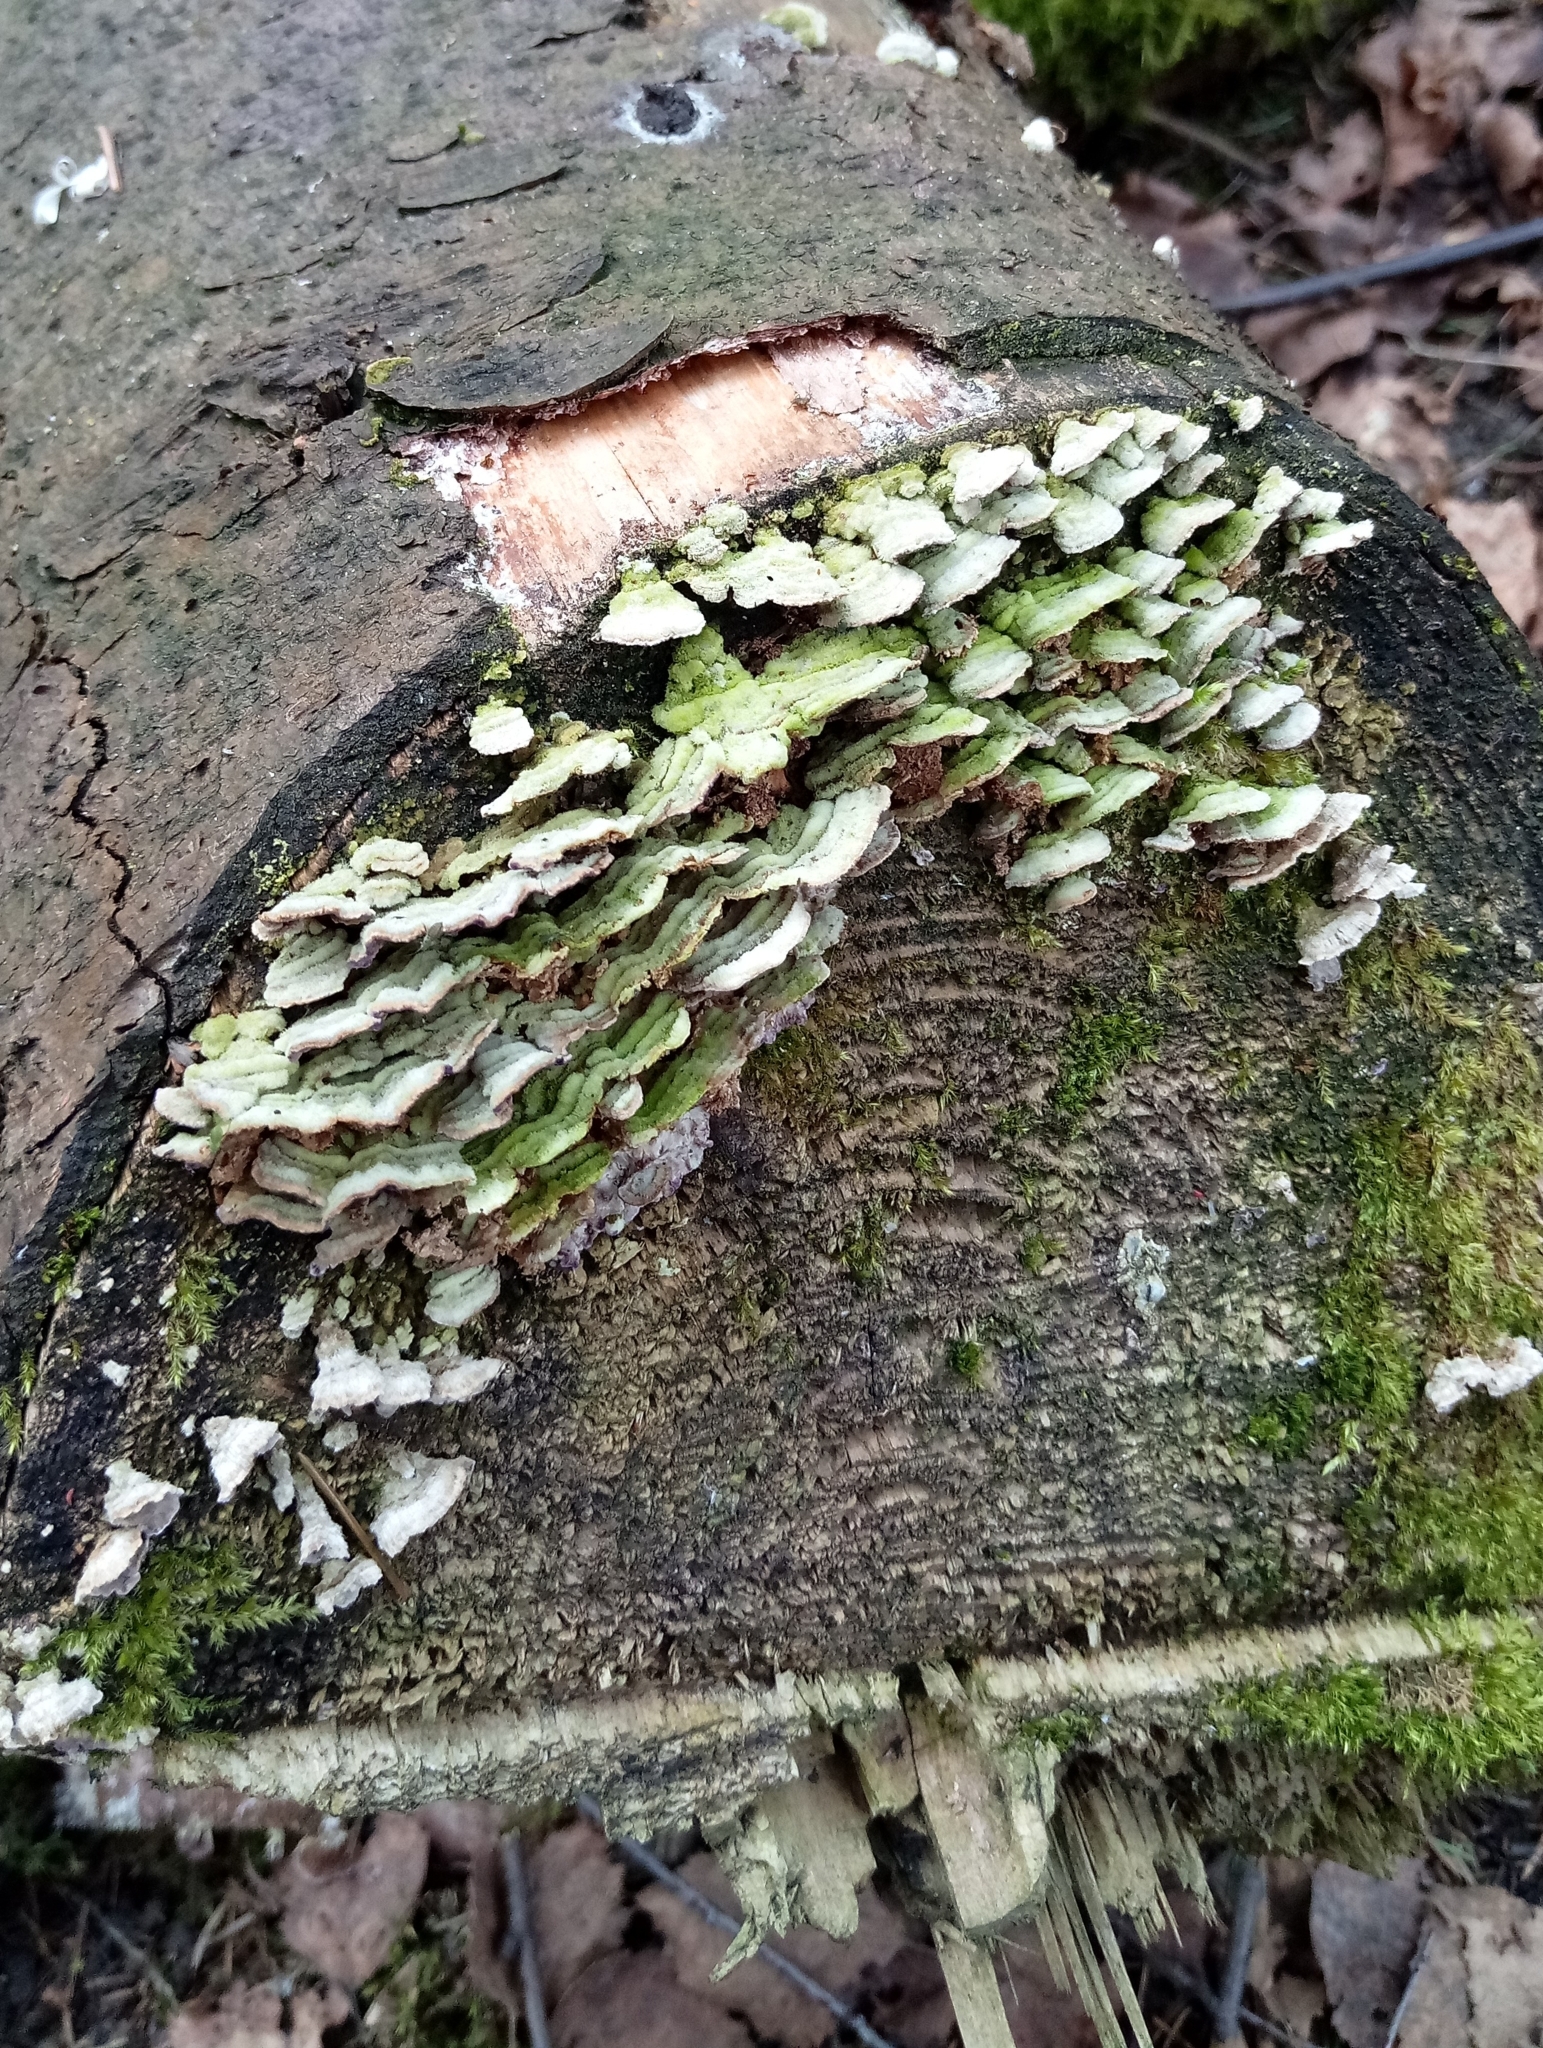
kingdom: Fungi
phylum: Basidiomycota
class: Agaricomycetes
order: Hymenochaetales
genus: Trichaptum
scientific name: Trichaptum fuscoviolaceum
